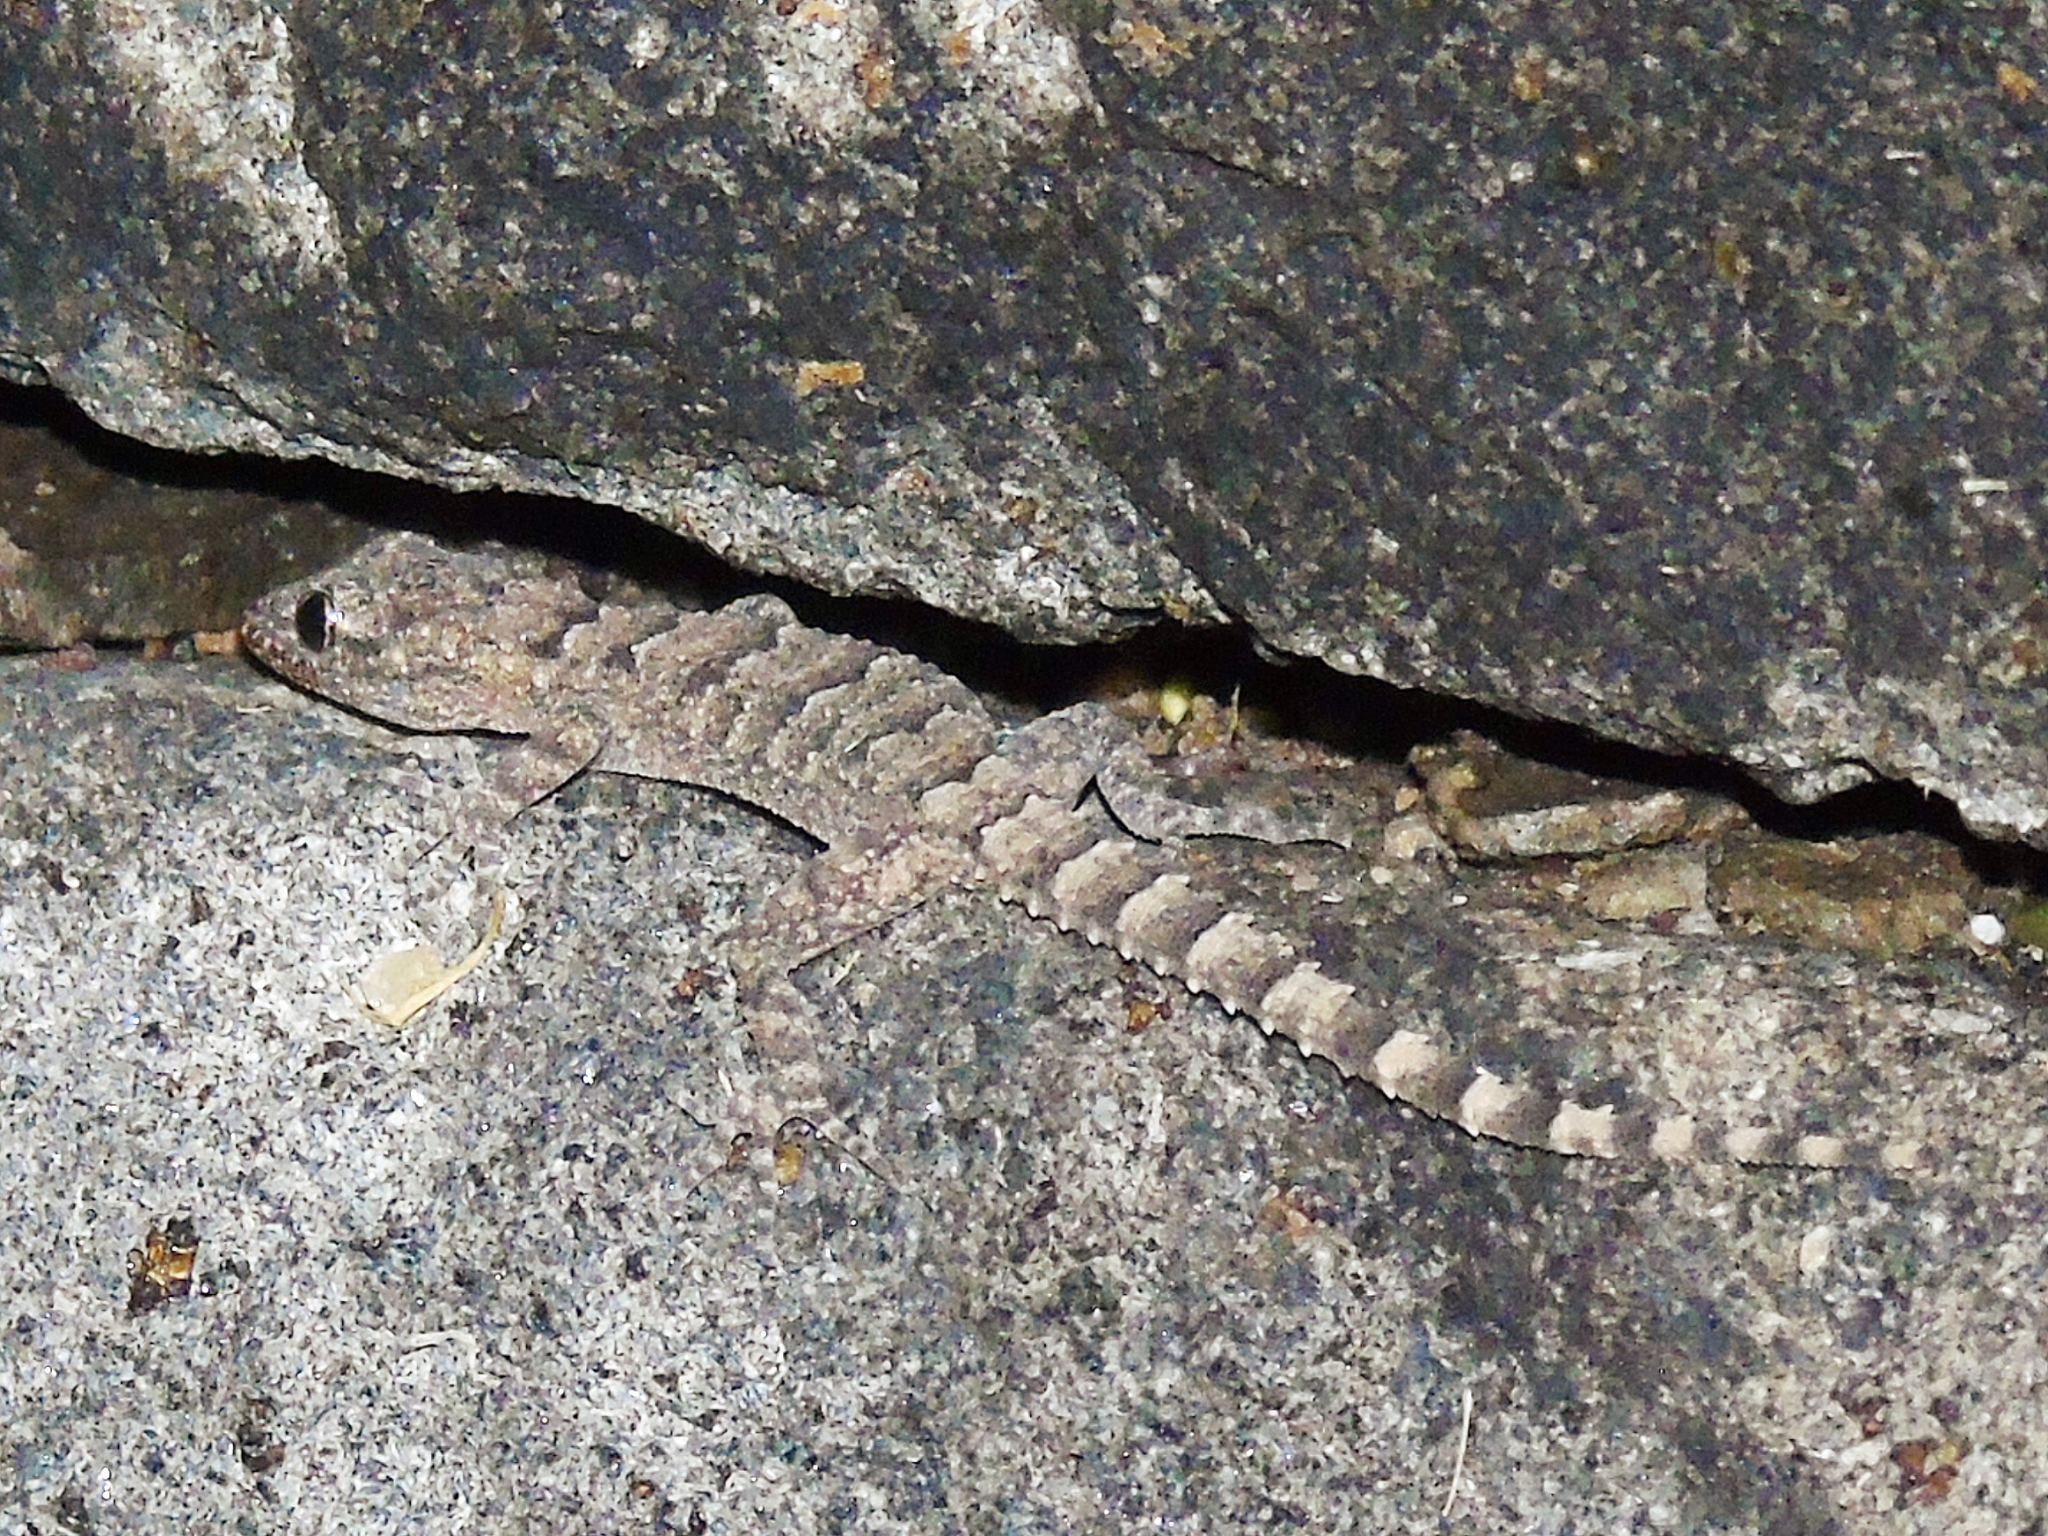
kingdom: Animalia
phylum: Chordata
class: Squamata
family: Gekkonidae
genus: Mediodactylus
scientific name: Mediodactylus heterocercus
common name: Asia minor thin-toed gecko
